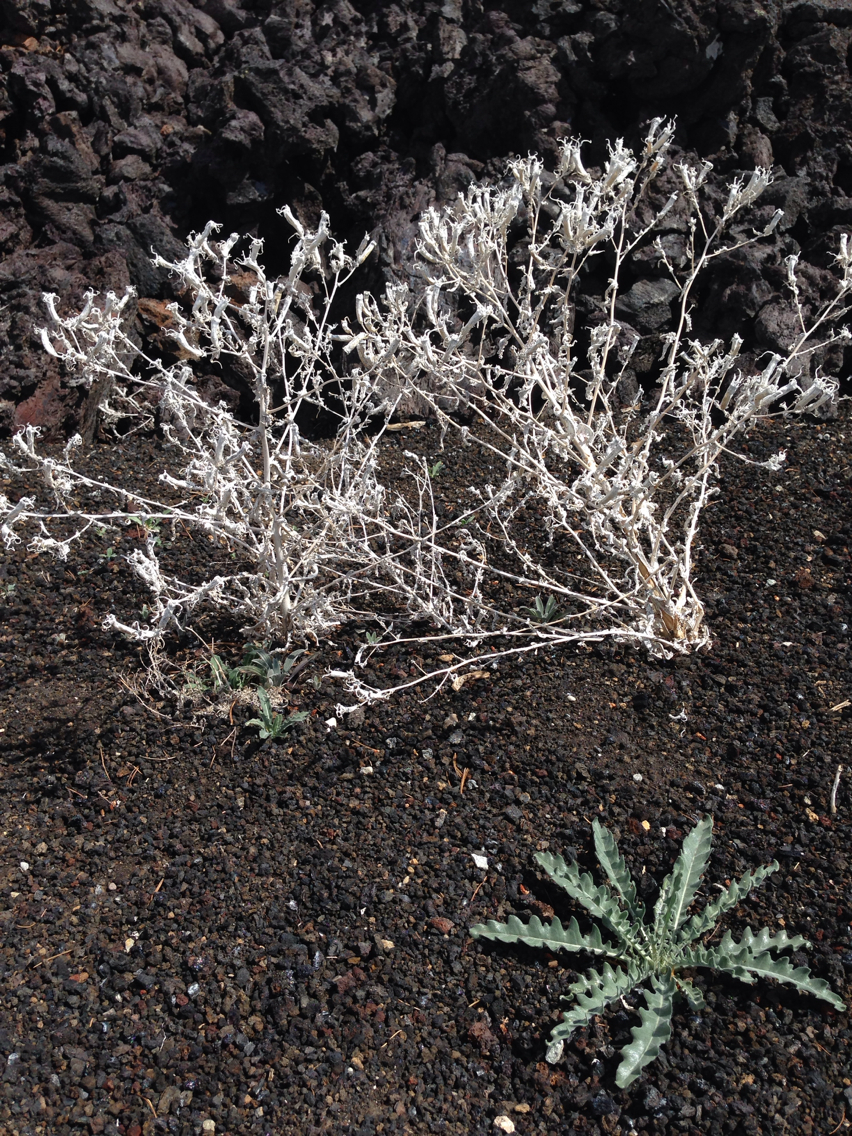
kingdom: Plantae
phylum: Tracheophyta
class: Magnoliopsida
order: Cornales
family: Loasaceae
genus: Mentzelia
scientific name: Mentzelia laevicaulis
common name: Smooth-stem blazingstar
